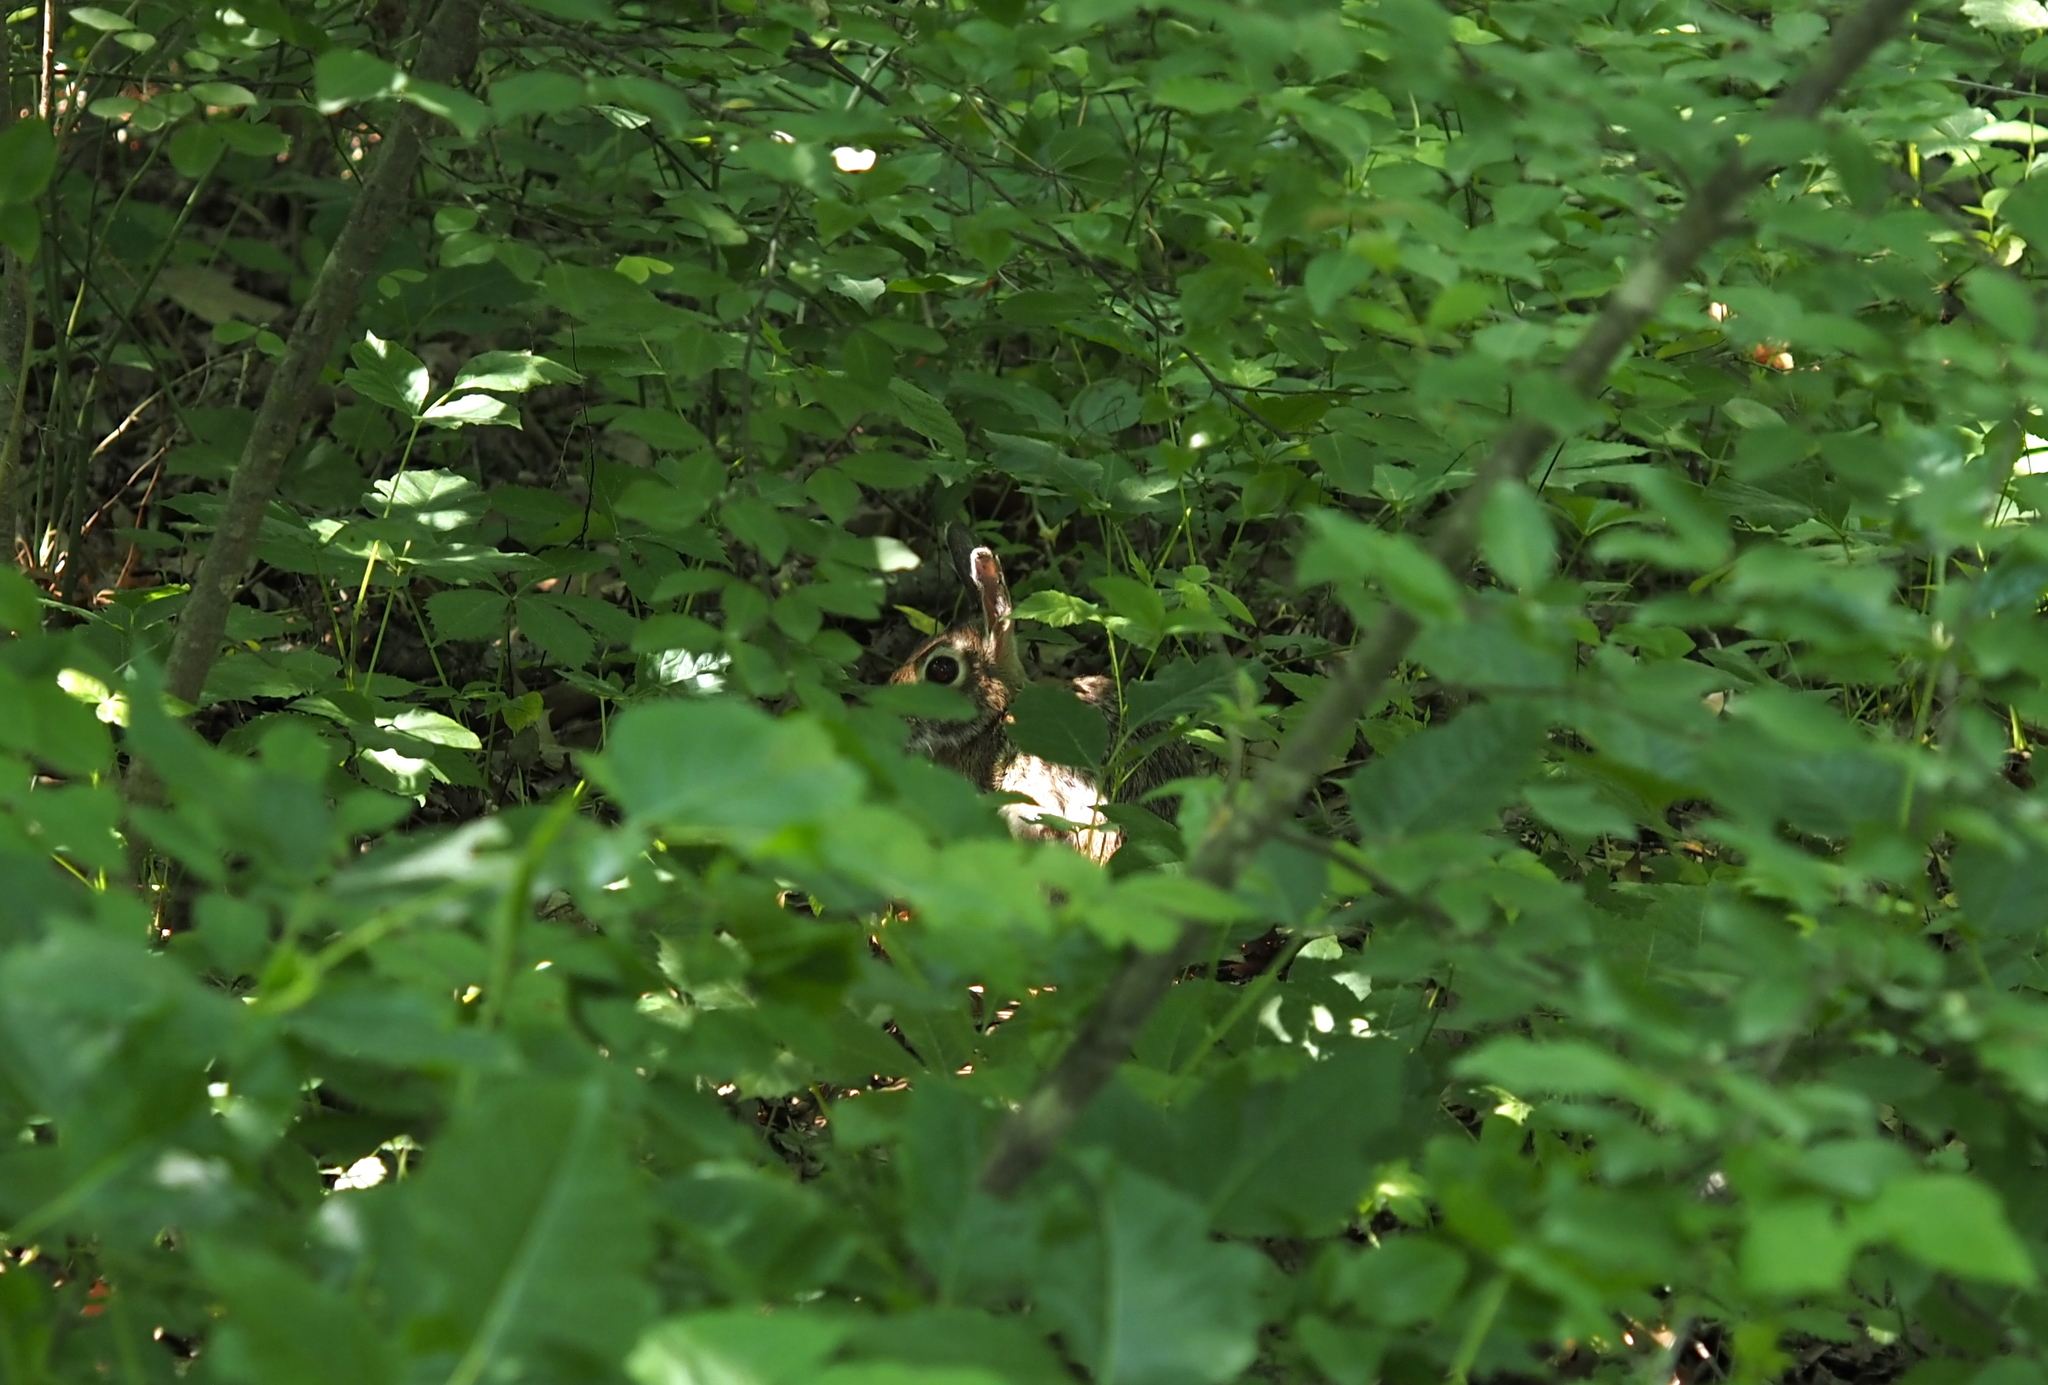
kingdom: Animalia
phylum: Chordata
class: Mammalia
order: Lagomorpha
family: Leporidae
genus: Sylvilagus
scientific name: Sylvilagus floridanus
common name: Eastern cottontail
